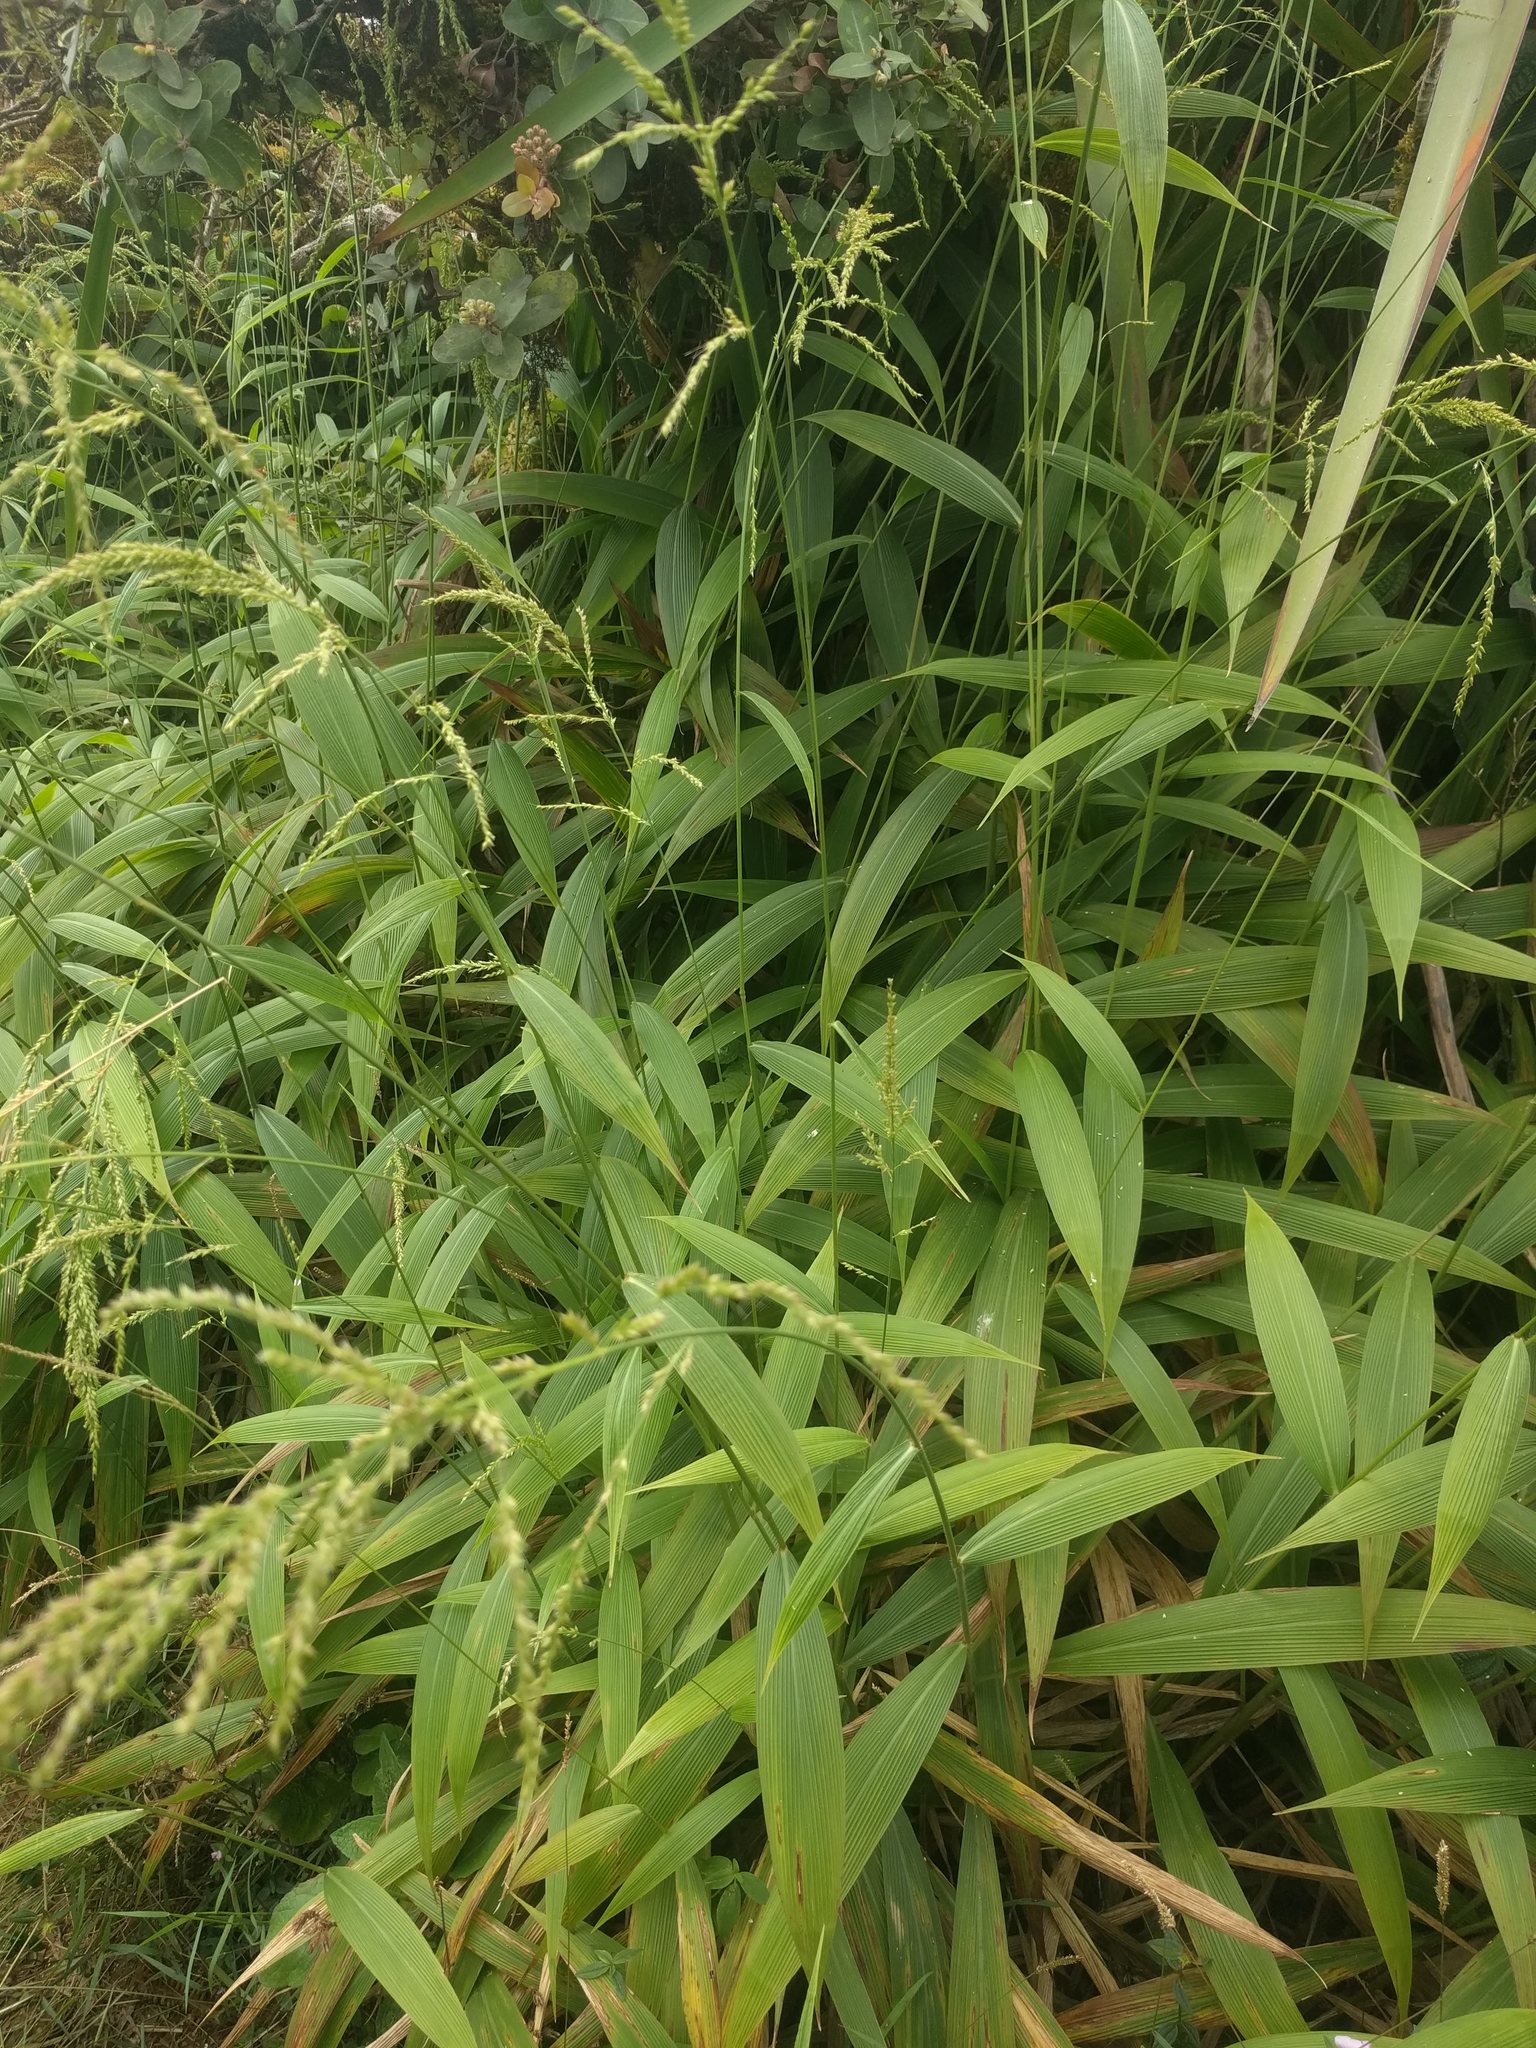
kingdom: Plantae
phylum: Tracheophyta
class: Liliopsida
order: Poales
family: Poaceae
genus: Setaria
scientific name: Setaria palmifolia
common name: Broadleaved bristlegrass
